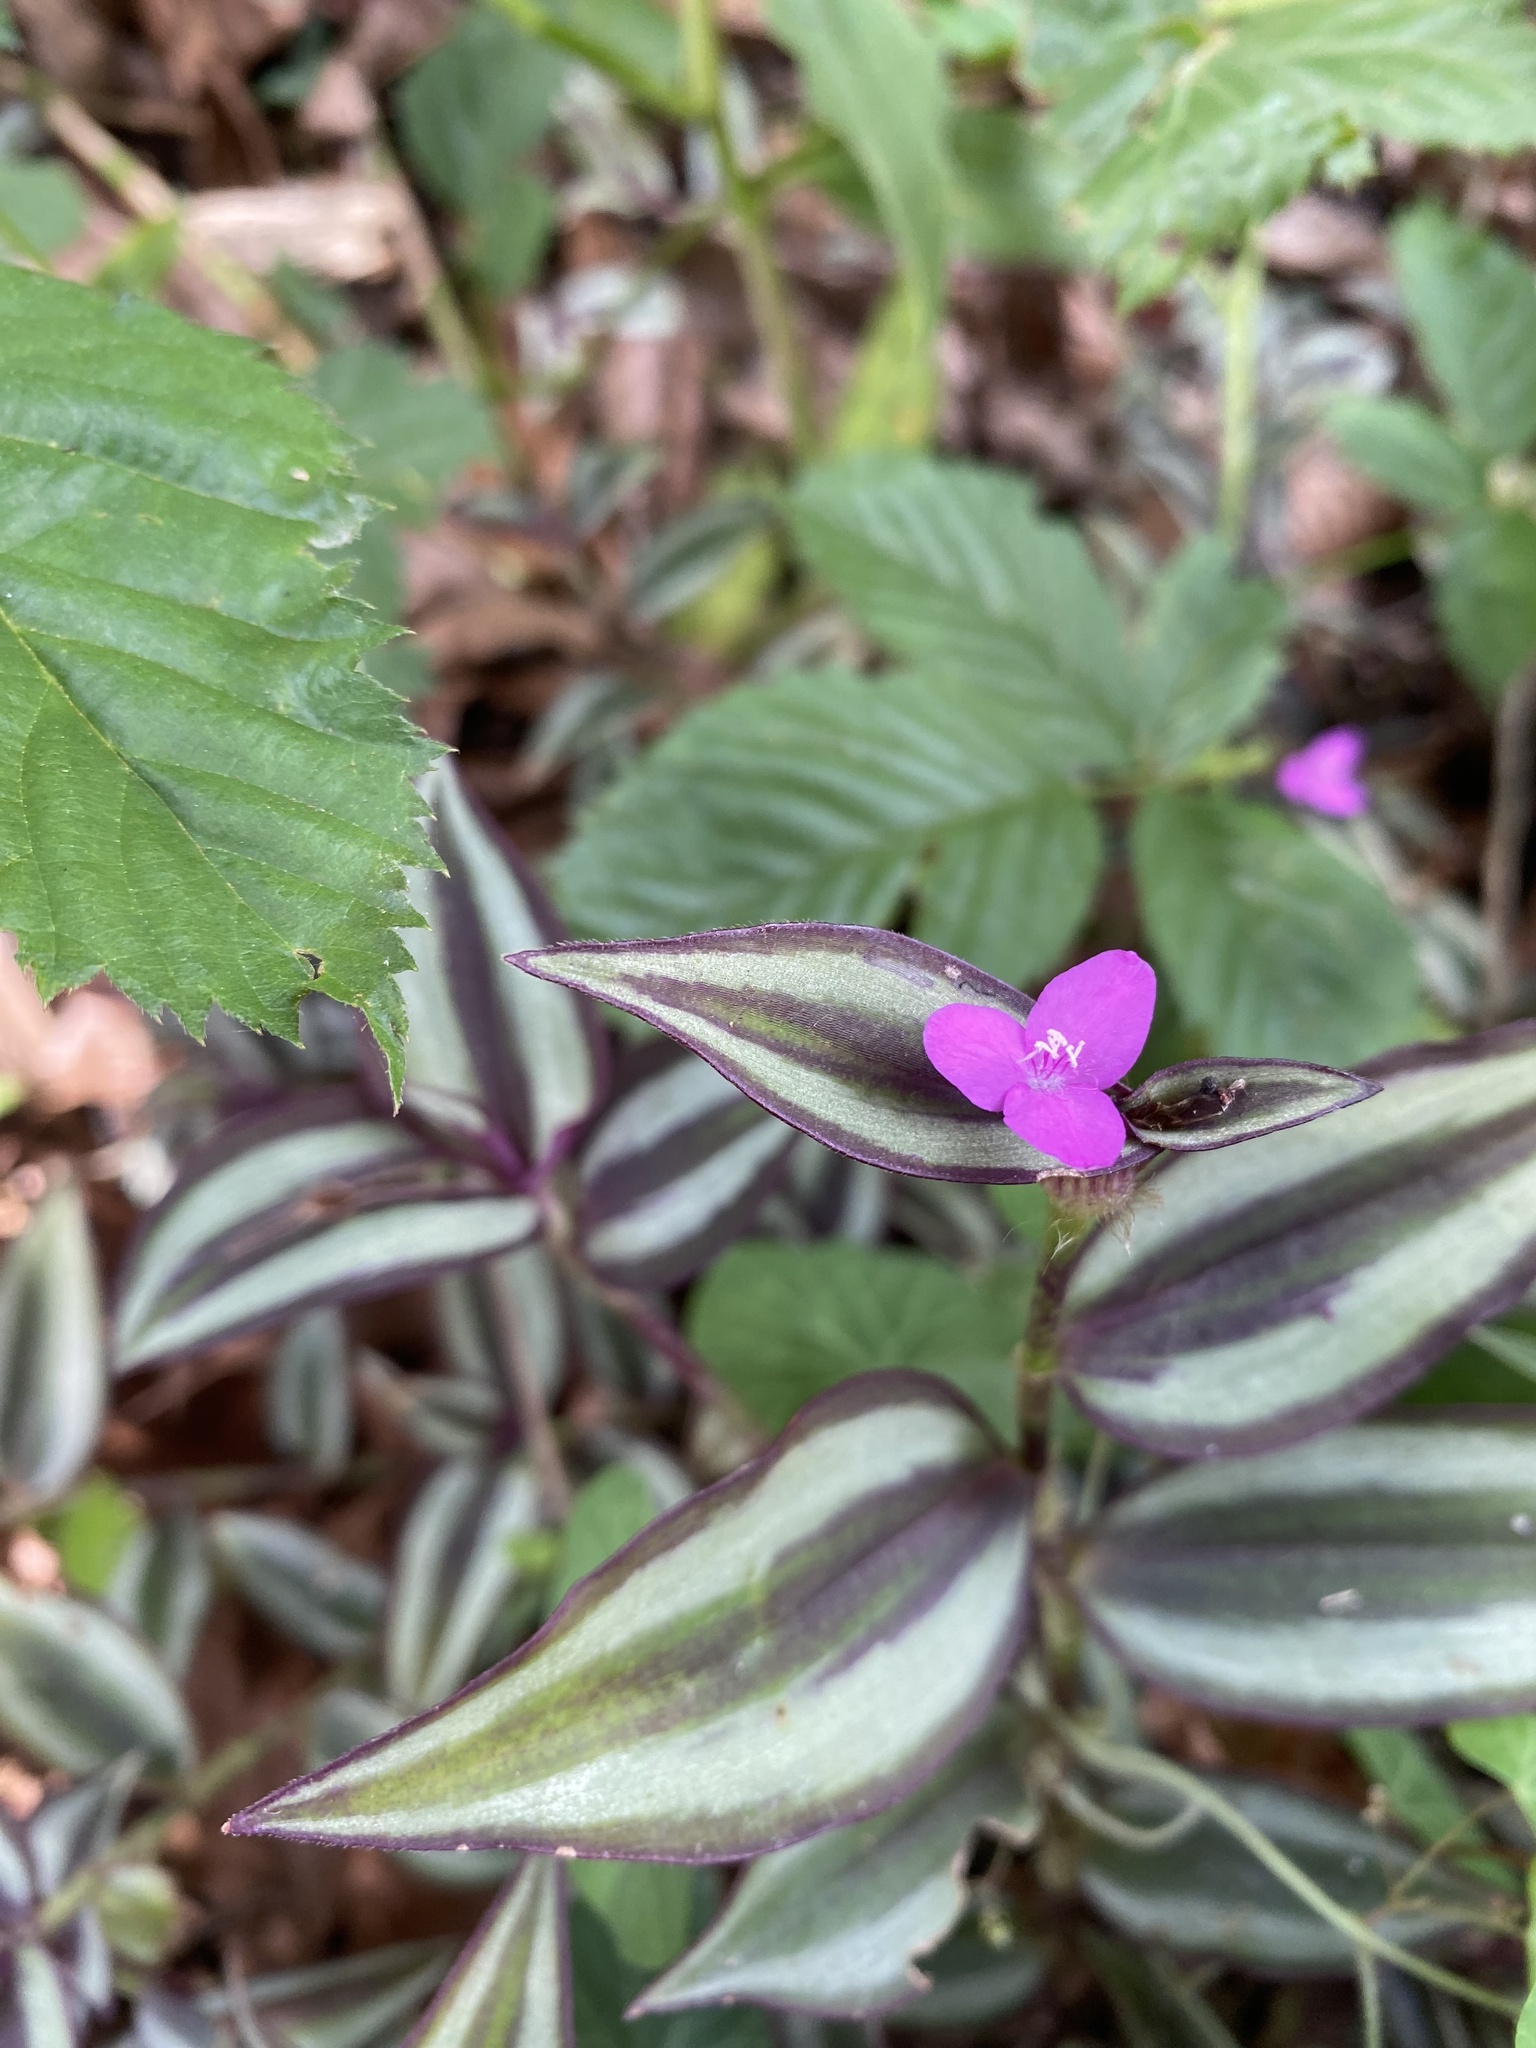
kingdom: Plantae
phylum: Tracheophyta
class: Liliopsida
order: Commelinales
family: Commelinaceae
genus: Tradescantia
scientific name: Tradescantia zebrina
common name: Inchplant
